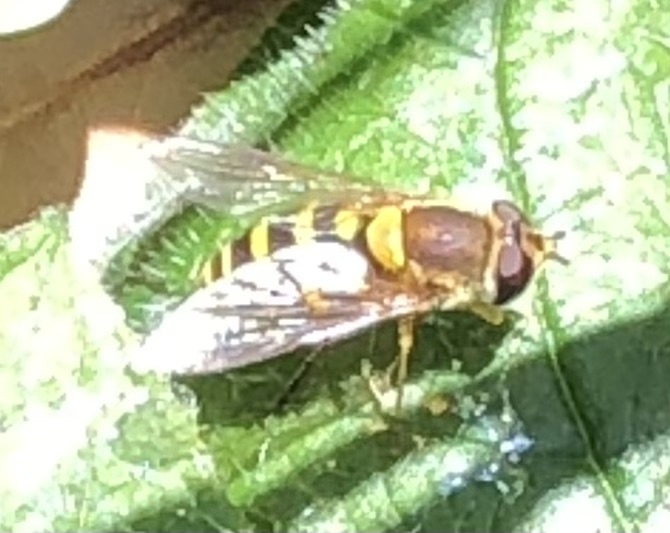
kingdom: Animalia
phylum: Arthropoda
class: Insecta
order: Diptera
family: Syrphidae
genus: Syrphus
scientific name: Syrphus
